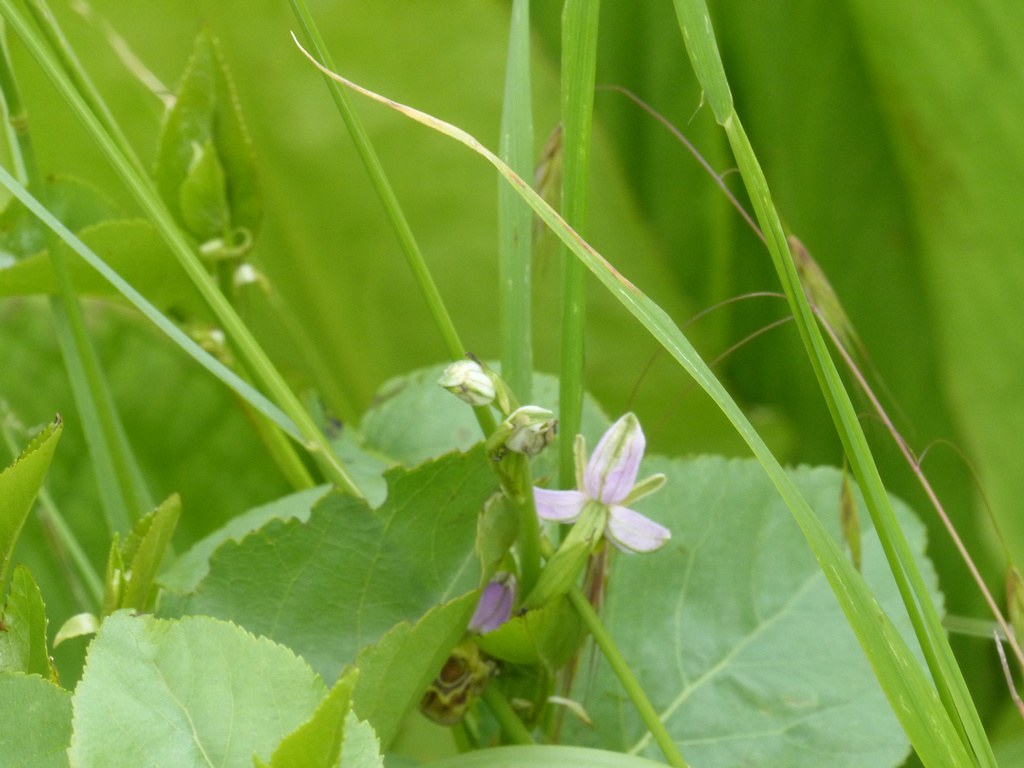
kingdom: Plantae
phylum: Tracheophyta
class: Liliopsida
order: Asparagales
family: Orchidaceae
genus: Ophrys
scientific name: Ophrys apifera
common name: Bee orchid
